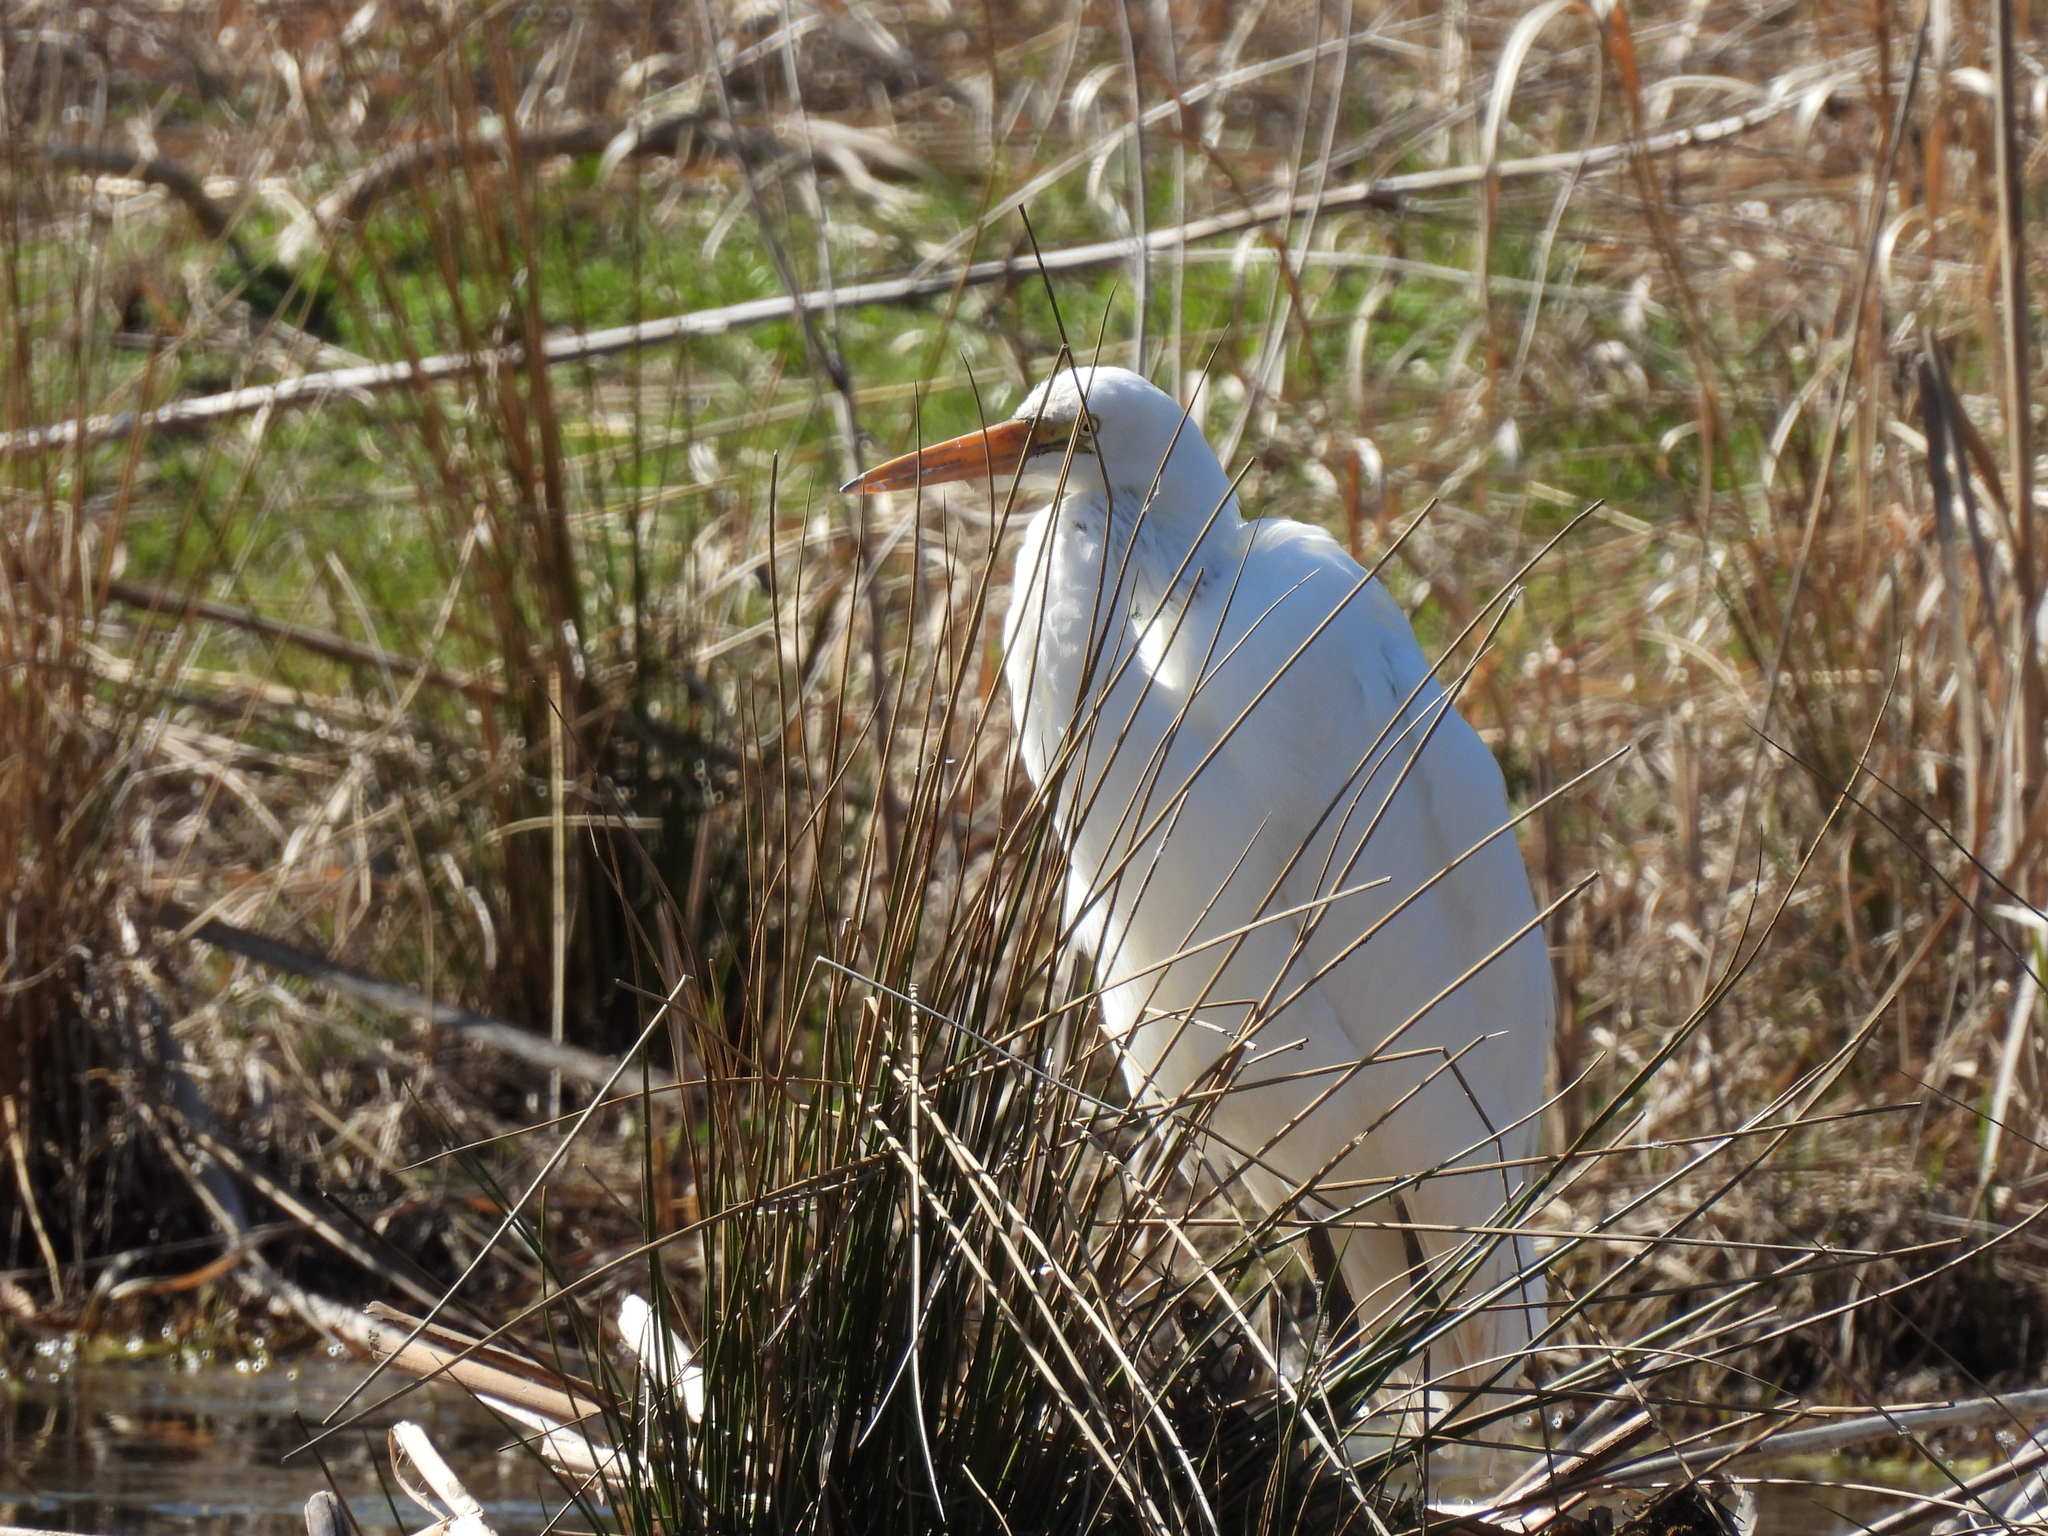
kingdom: Animalia
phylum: Chordata
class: Aves
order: Pelecaniformes
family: Ardeidae
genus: Ardea
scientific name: Ardea alba
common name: Great egret
